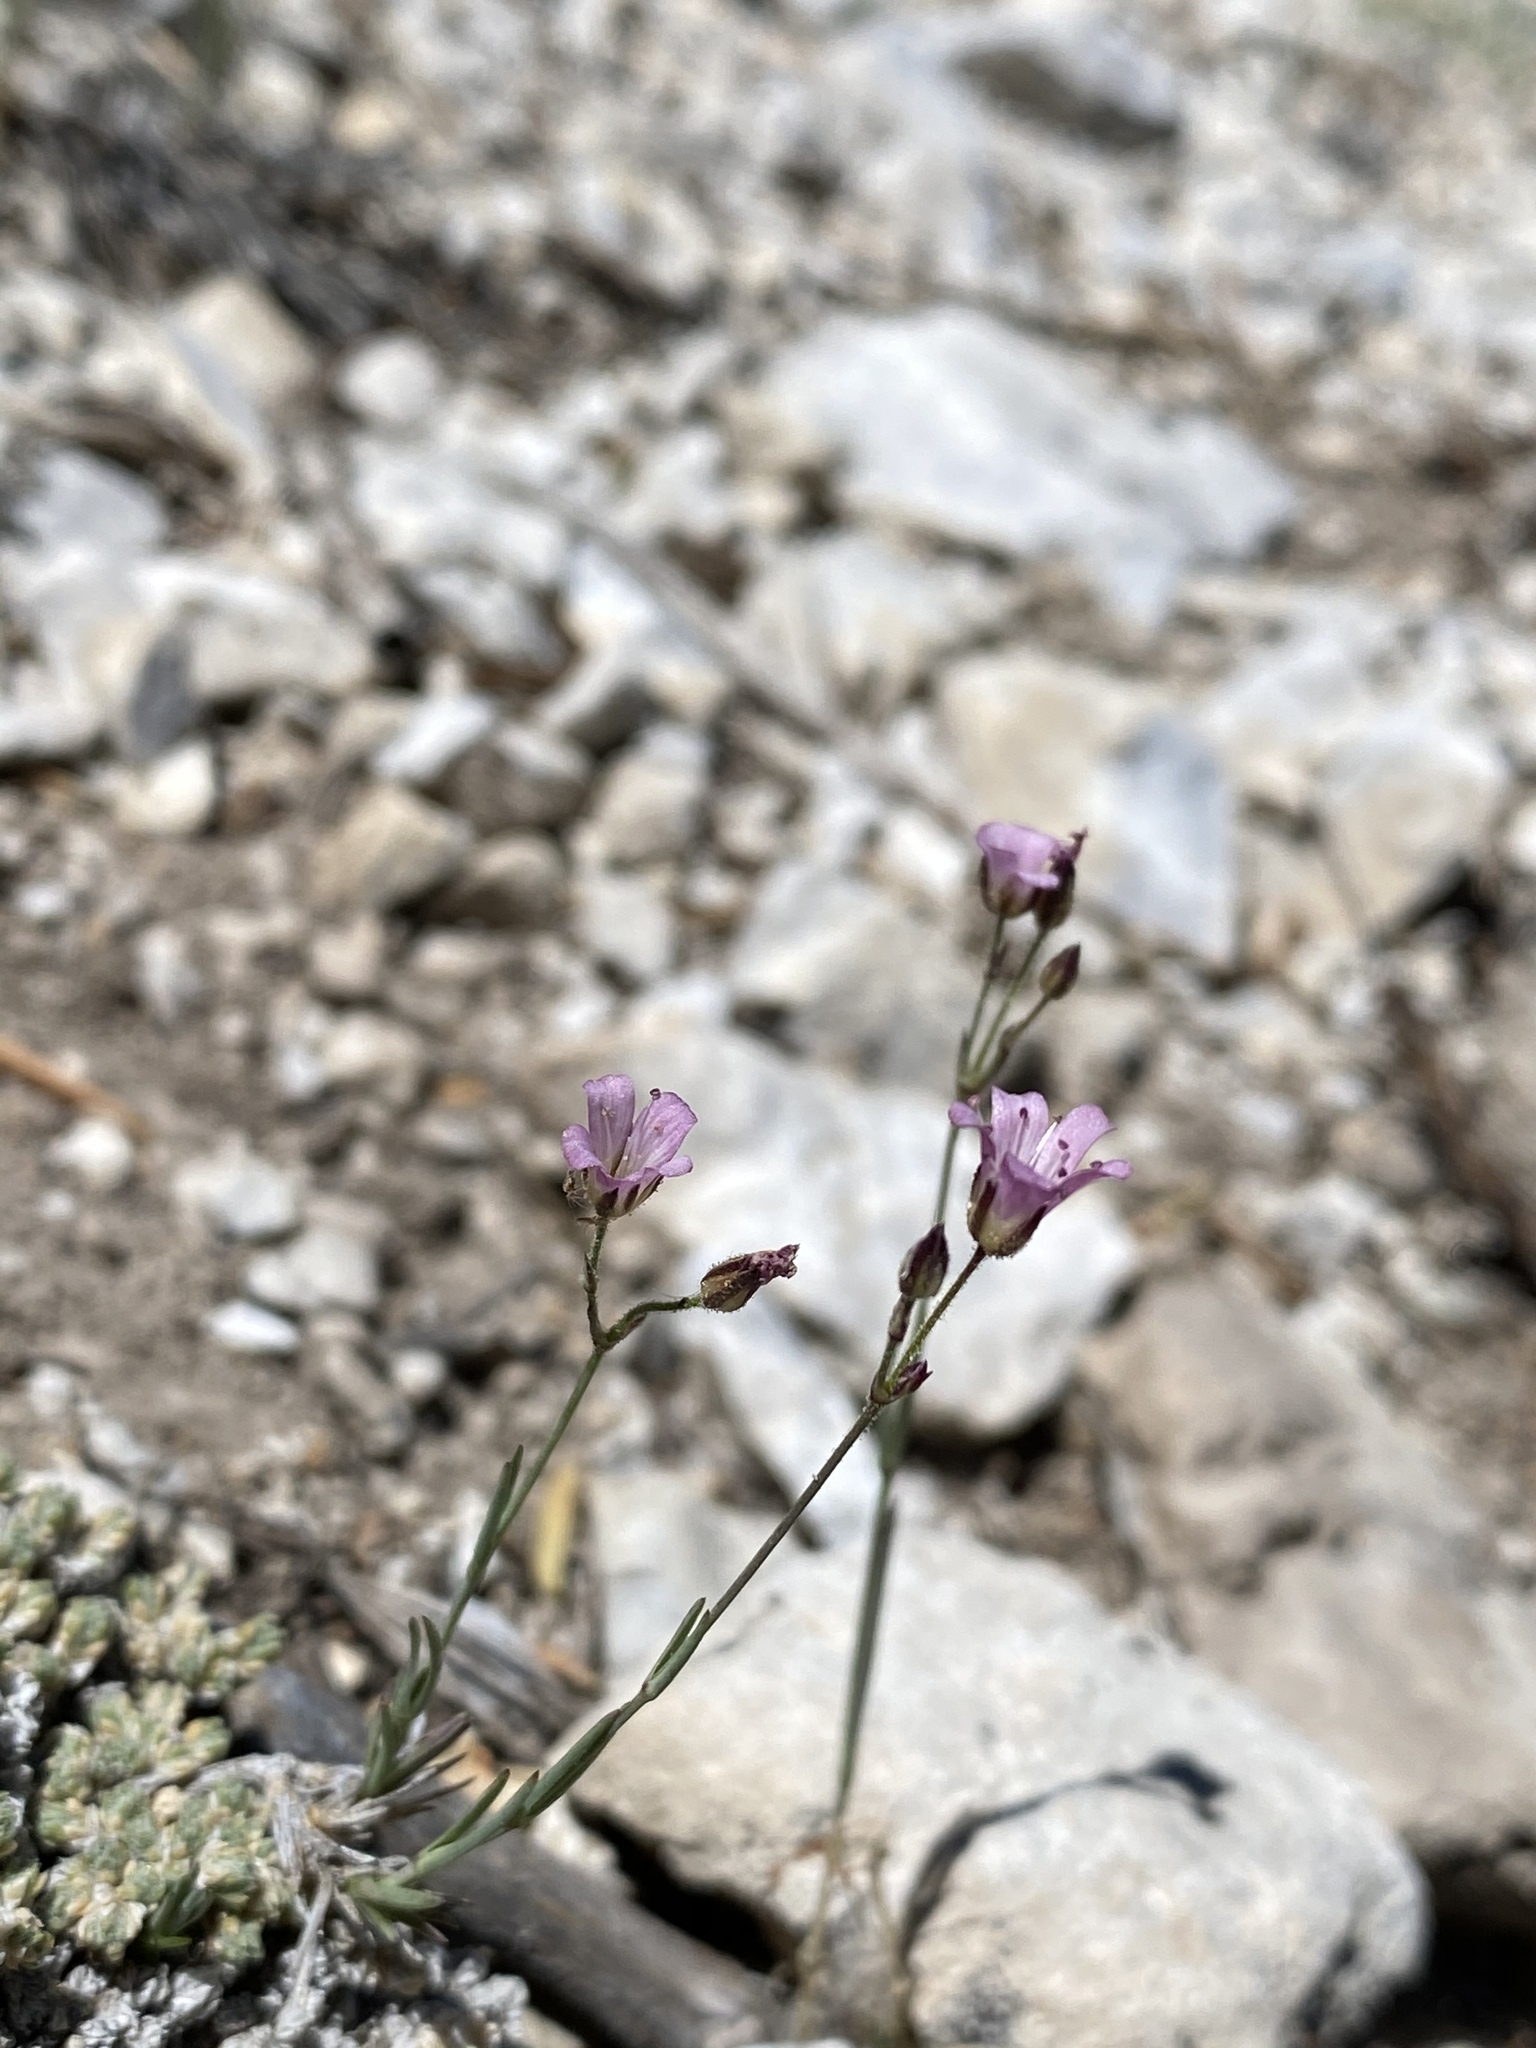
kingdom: Plantae
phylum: Tracheophyta
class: Magnoliopsida
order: Caryophyllales
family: Caryophyllaceae
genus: Eremogone
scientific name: Eremogone kingii
